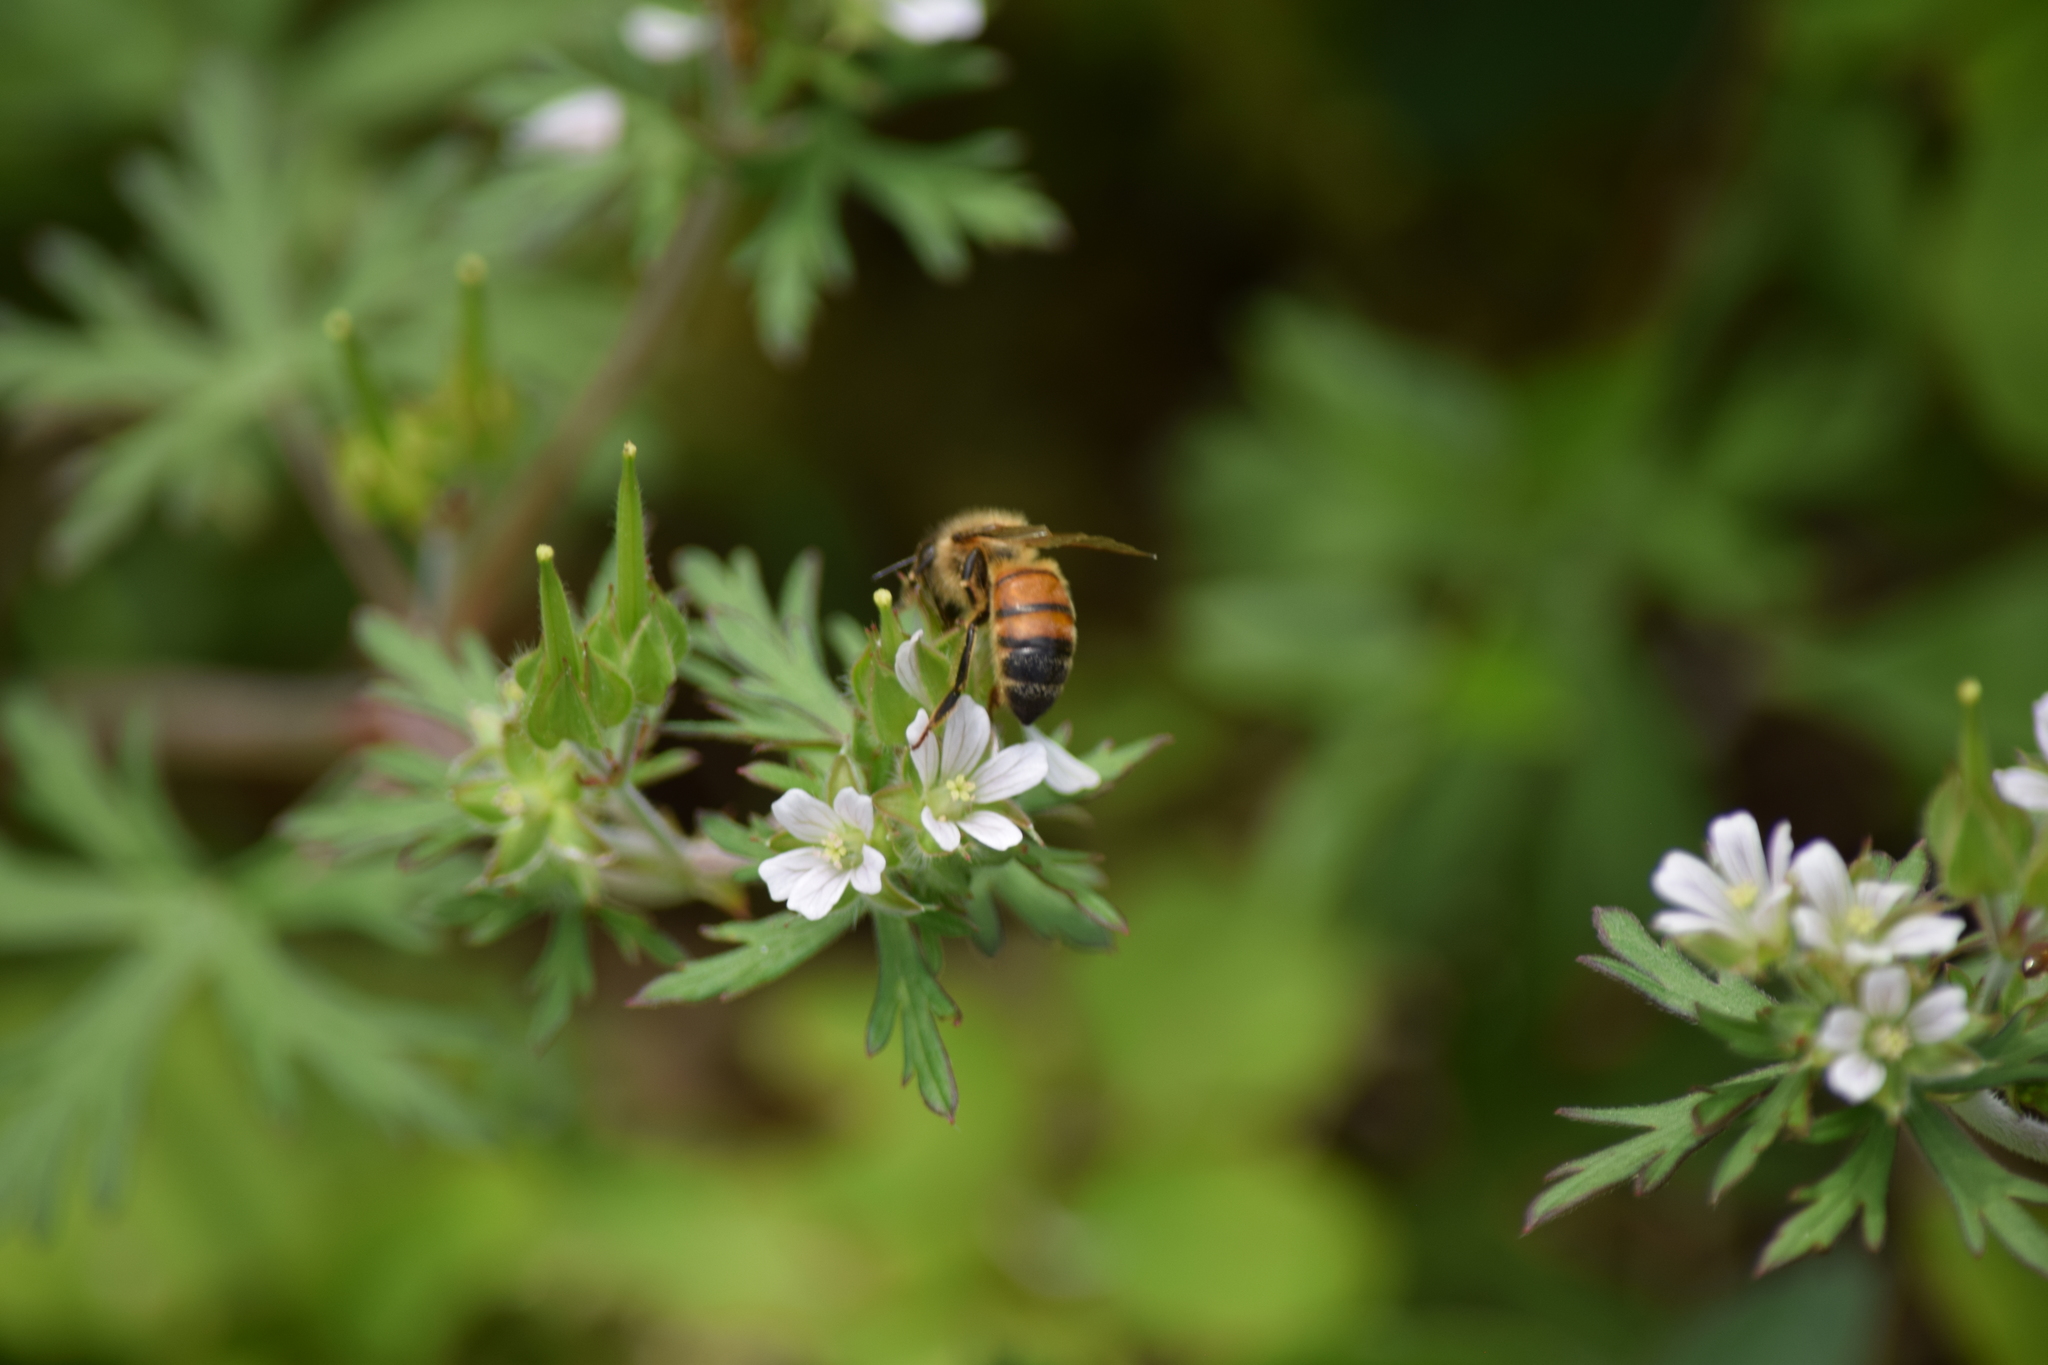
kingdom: Animalia
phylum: Arthropoda
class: Insecta
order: Hymenoptera
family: Apidae
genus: Apis
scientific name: Apis mellifera
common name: Honey bee
